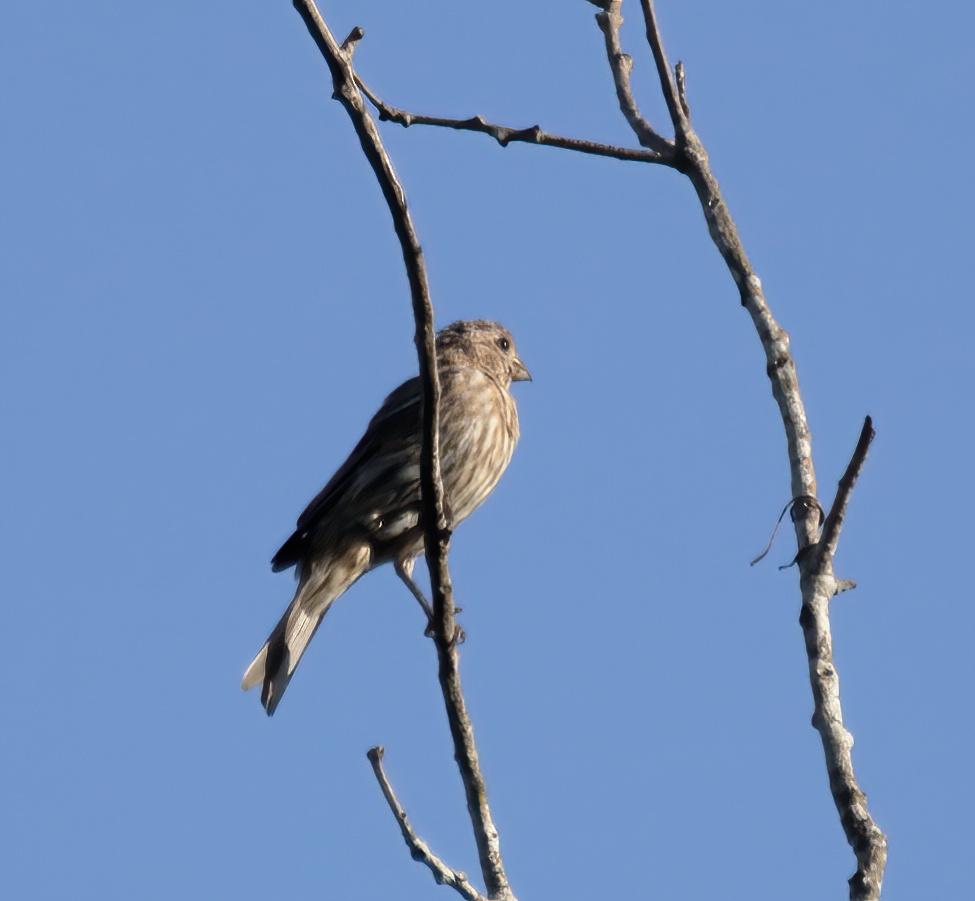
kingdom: Animalia
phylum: Chordata
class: Aves
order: Piciformes
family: Picidae
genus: Melanerpes
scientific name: Melanerpes carolinus
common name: Red-bellied woodpecker
